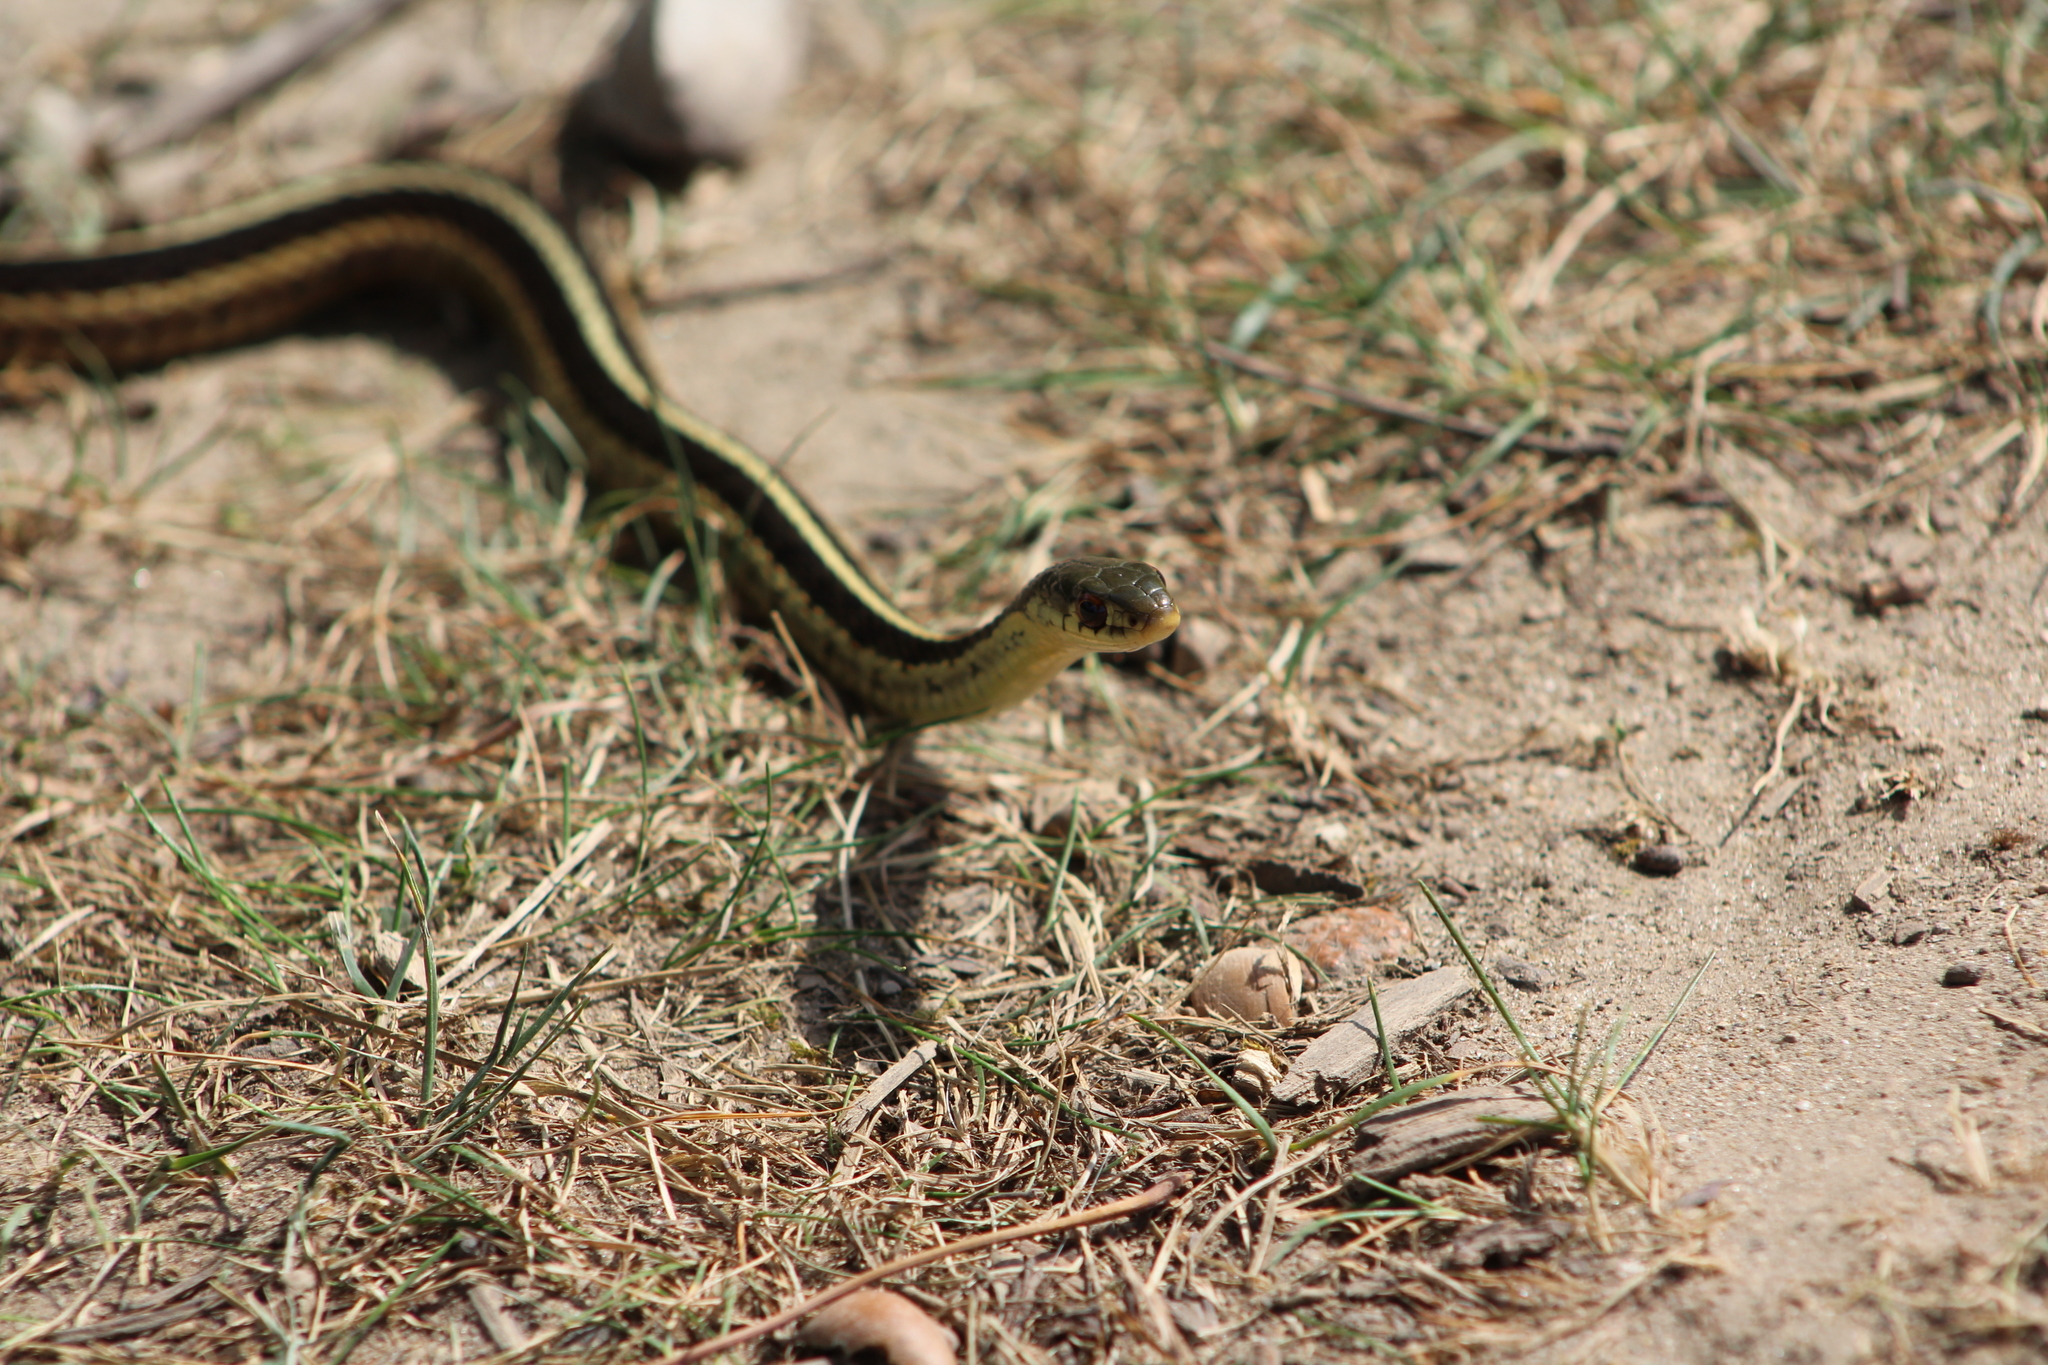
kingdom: Animalia
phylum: Chordata
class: Squamata
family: Colubridae
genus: Thamnophis
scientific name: Thamnophis sirtalis
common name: Common garter snake
